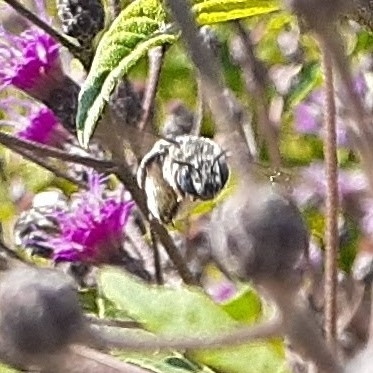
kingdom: Animalia
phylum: Arthropoda
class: Insecta
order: Hymenoptera
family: Apidae
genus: Melissodes
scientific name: Melissodes denticulatus
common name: Denticulate long-horned bee
